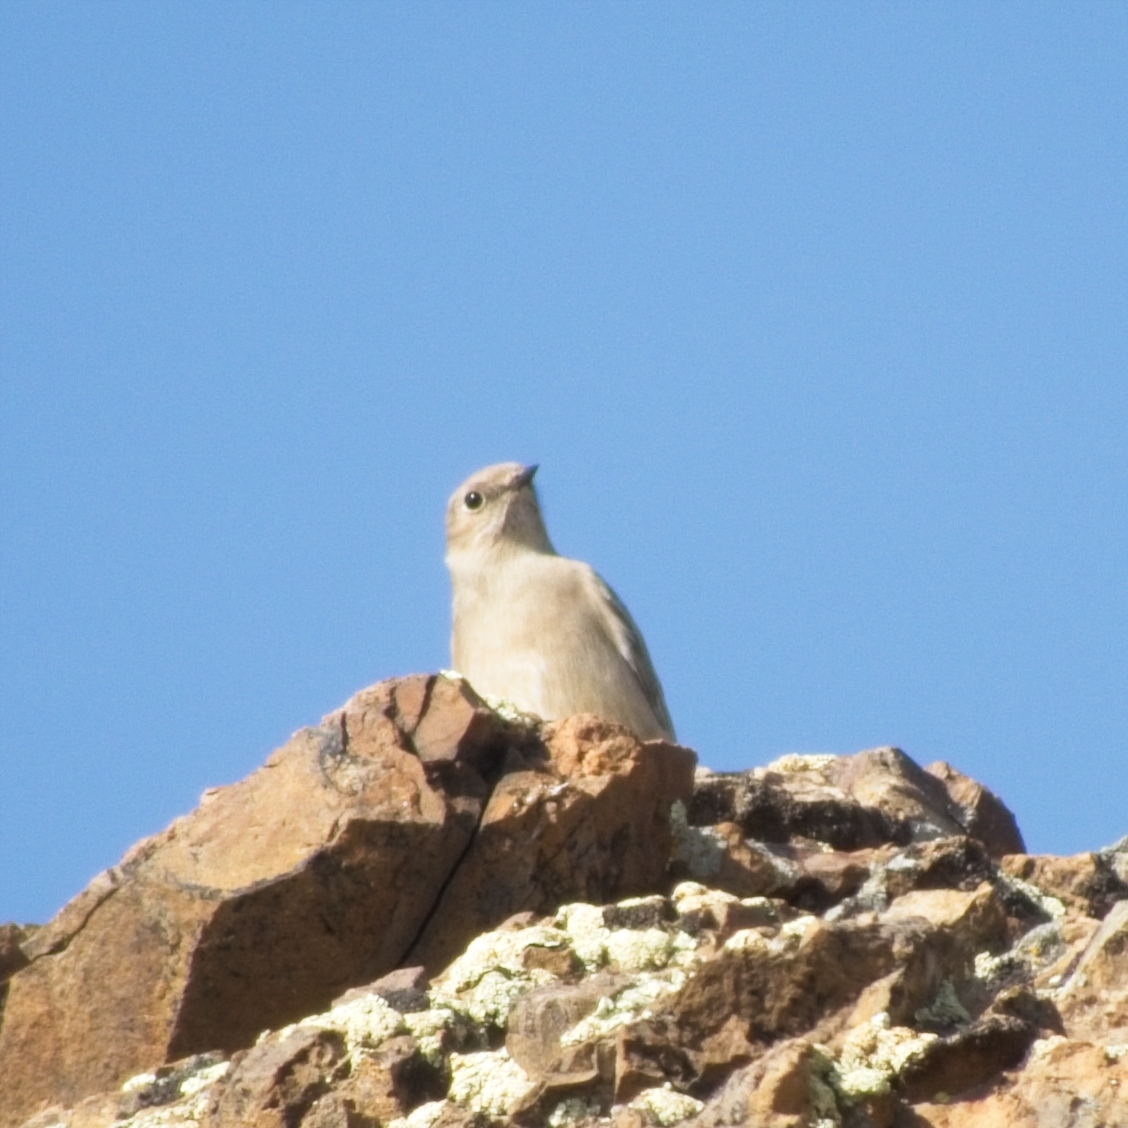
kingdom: Animalia
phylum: Chordata
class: Aves
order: Passeriformes
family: Muscicapidae
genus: Phoenicurus
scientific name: Phoenicurus ochruros
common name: Black redstart
